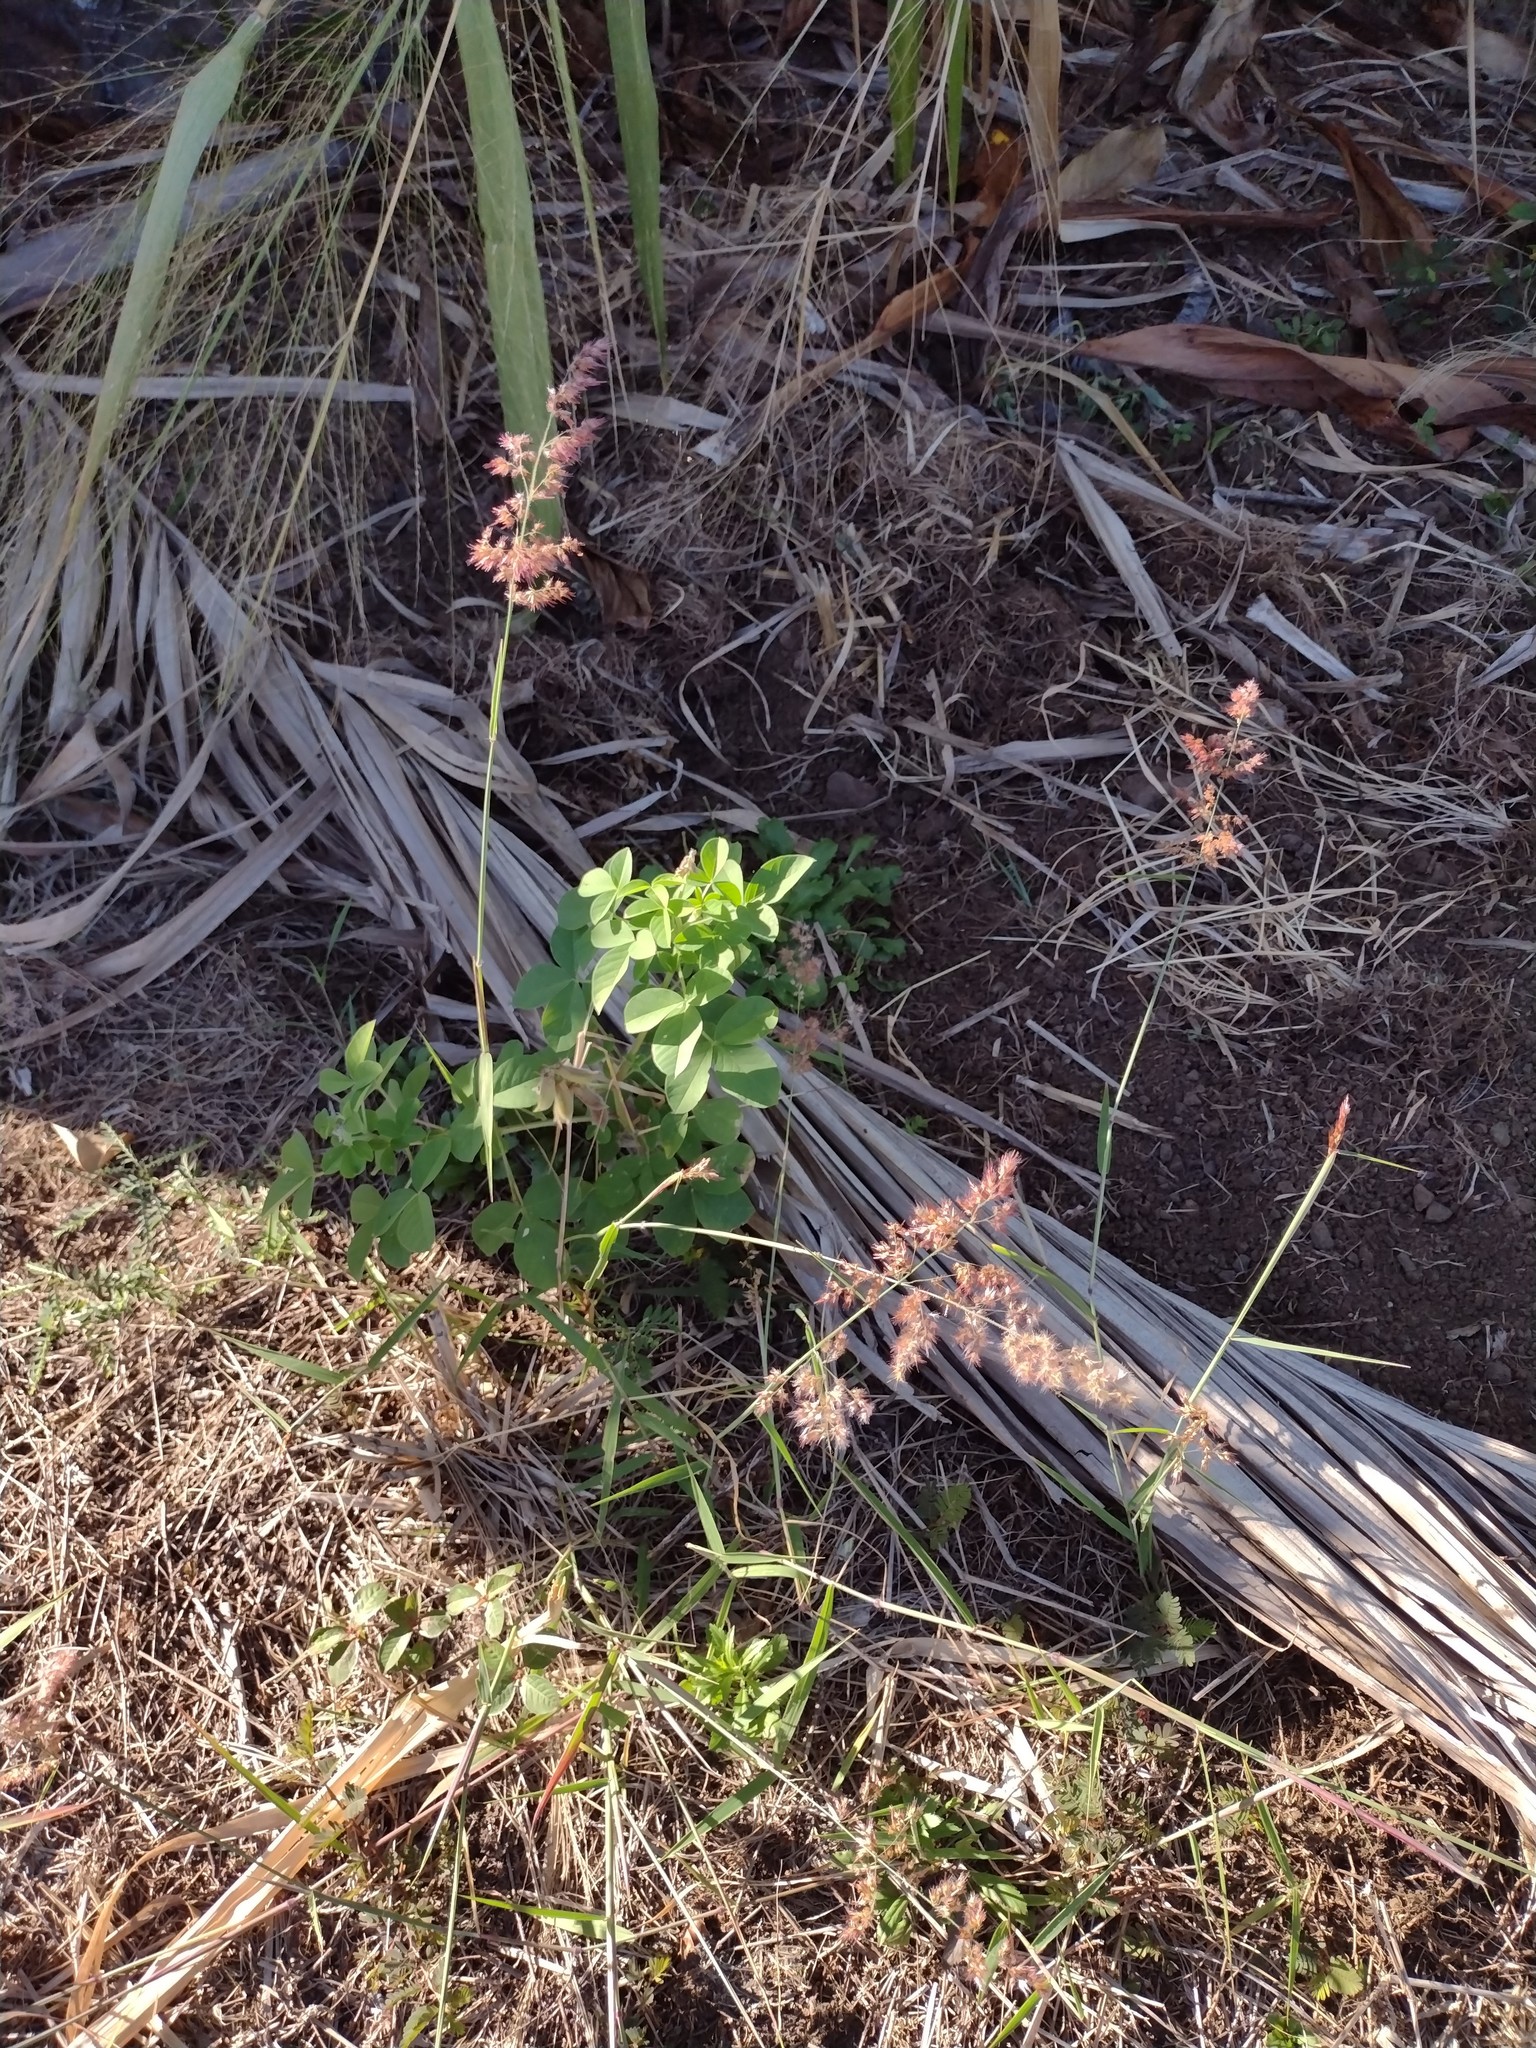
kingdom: Plantae
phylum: Tracheophyta
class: Liliopsida
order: Poales
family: Poaceae
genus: Melinis
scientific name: Melinis repens
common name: Rose natal grass
